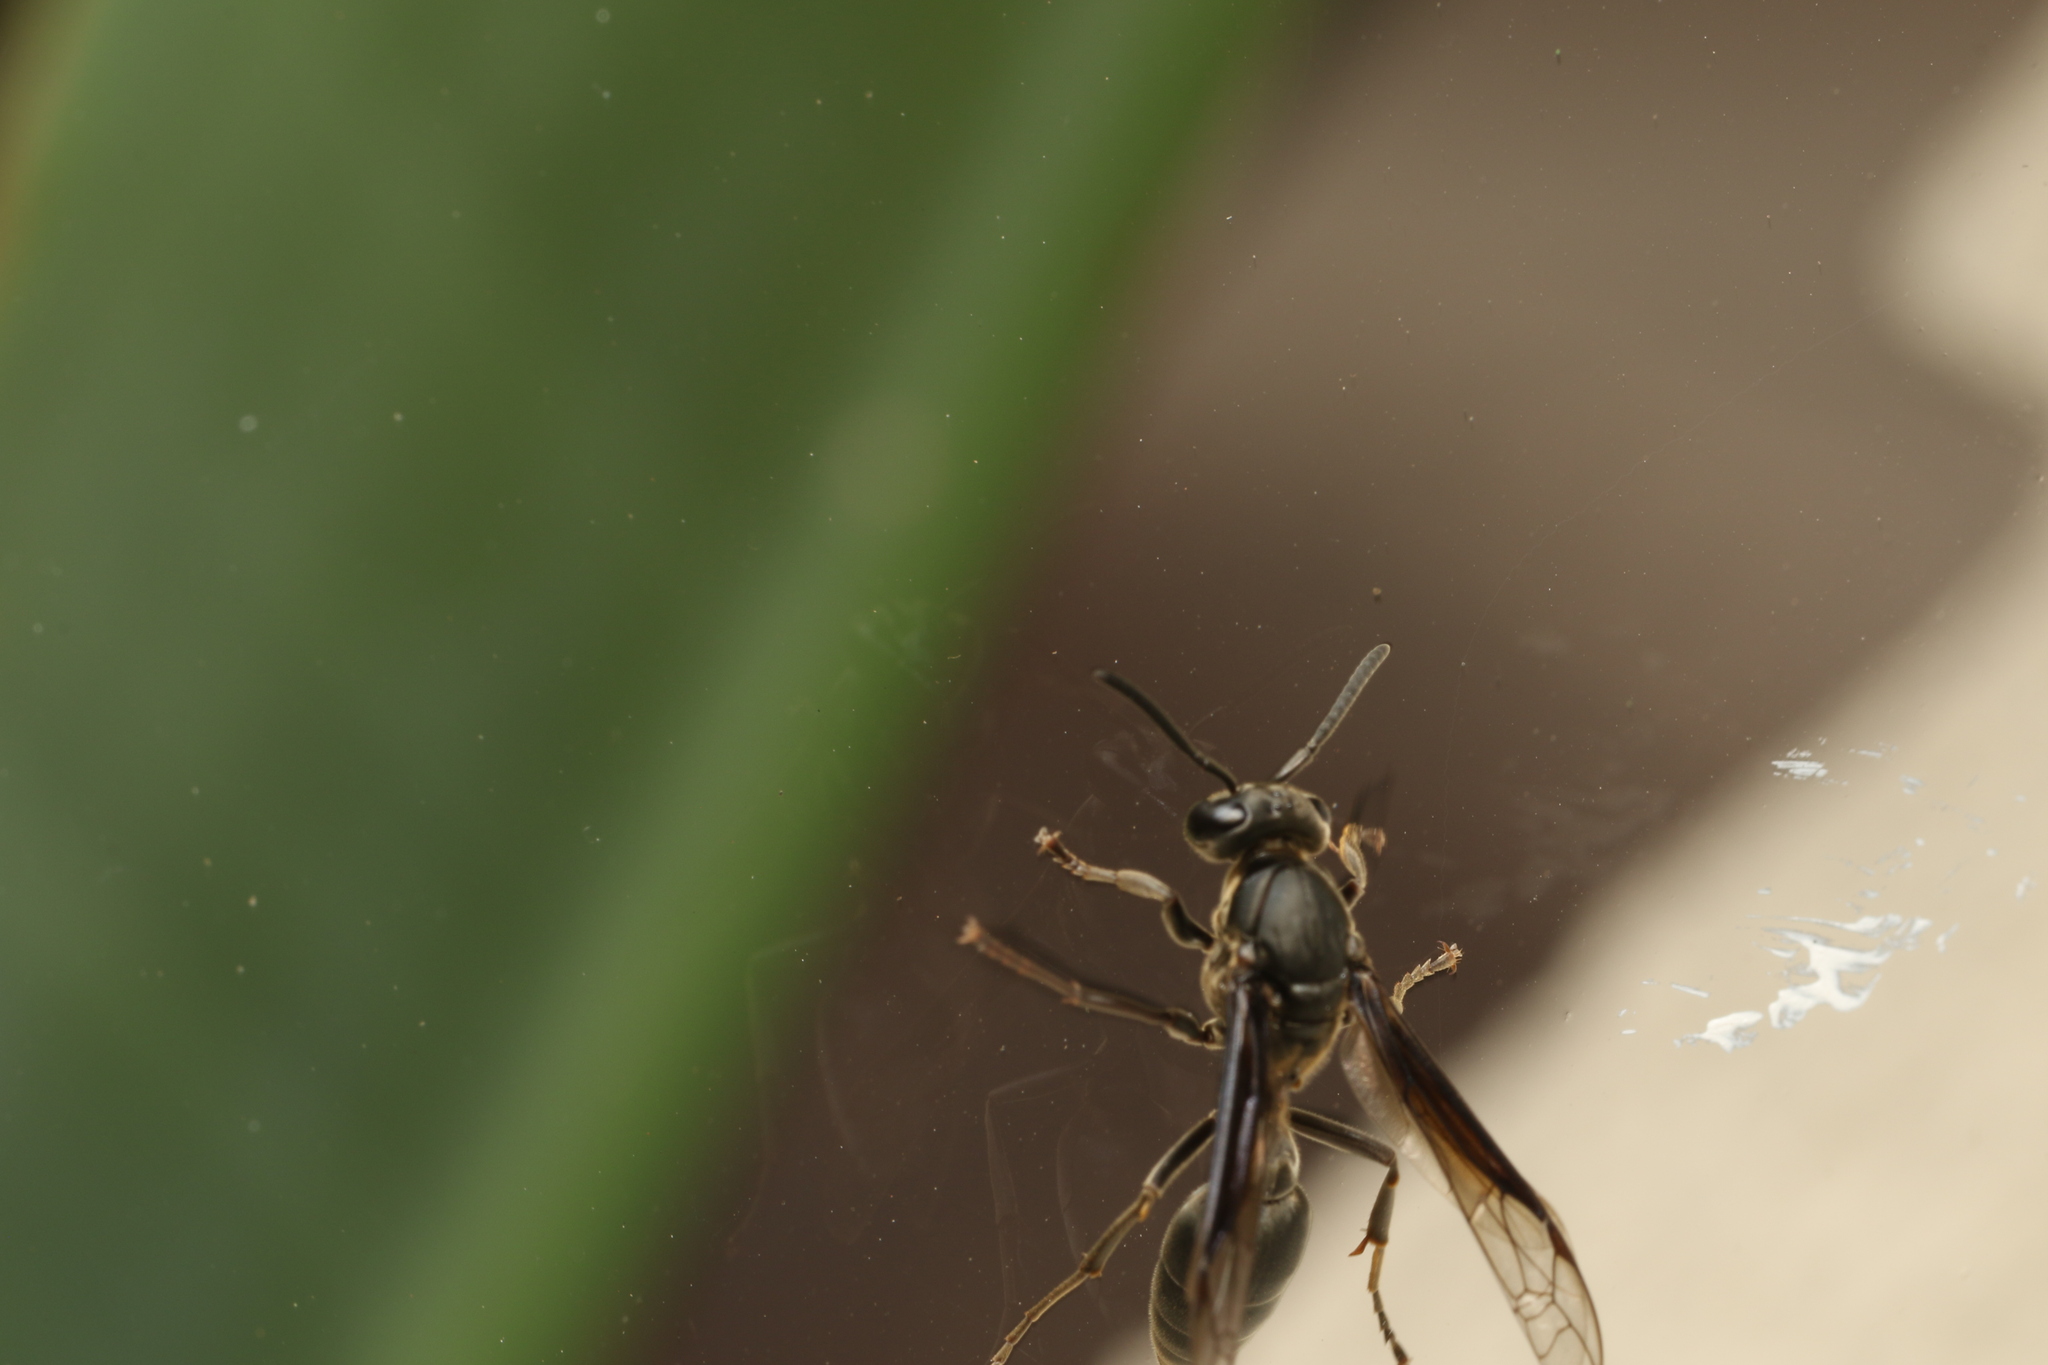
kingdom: Animalia
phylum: Arthropoda
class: Insecta
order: Hymenoptera
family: Eumenidae
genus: Polybia
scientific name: Polybia ignobilis
